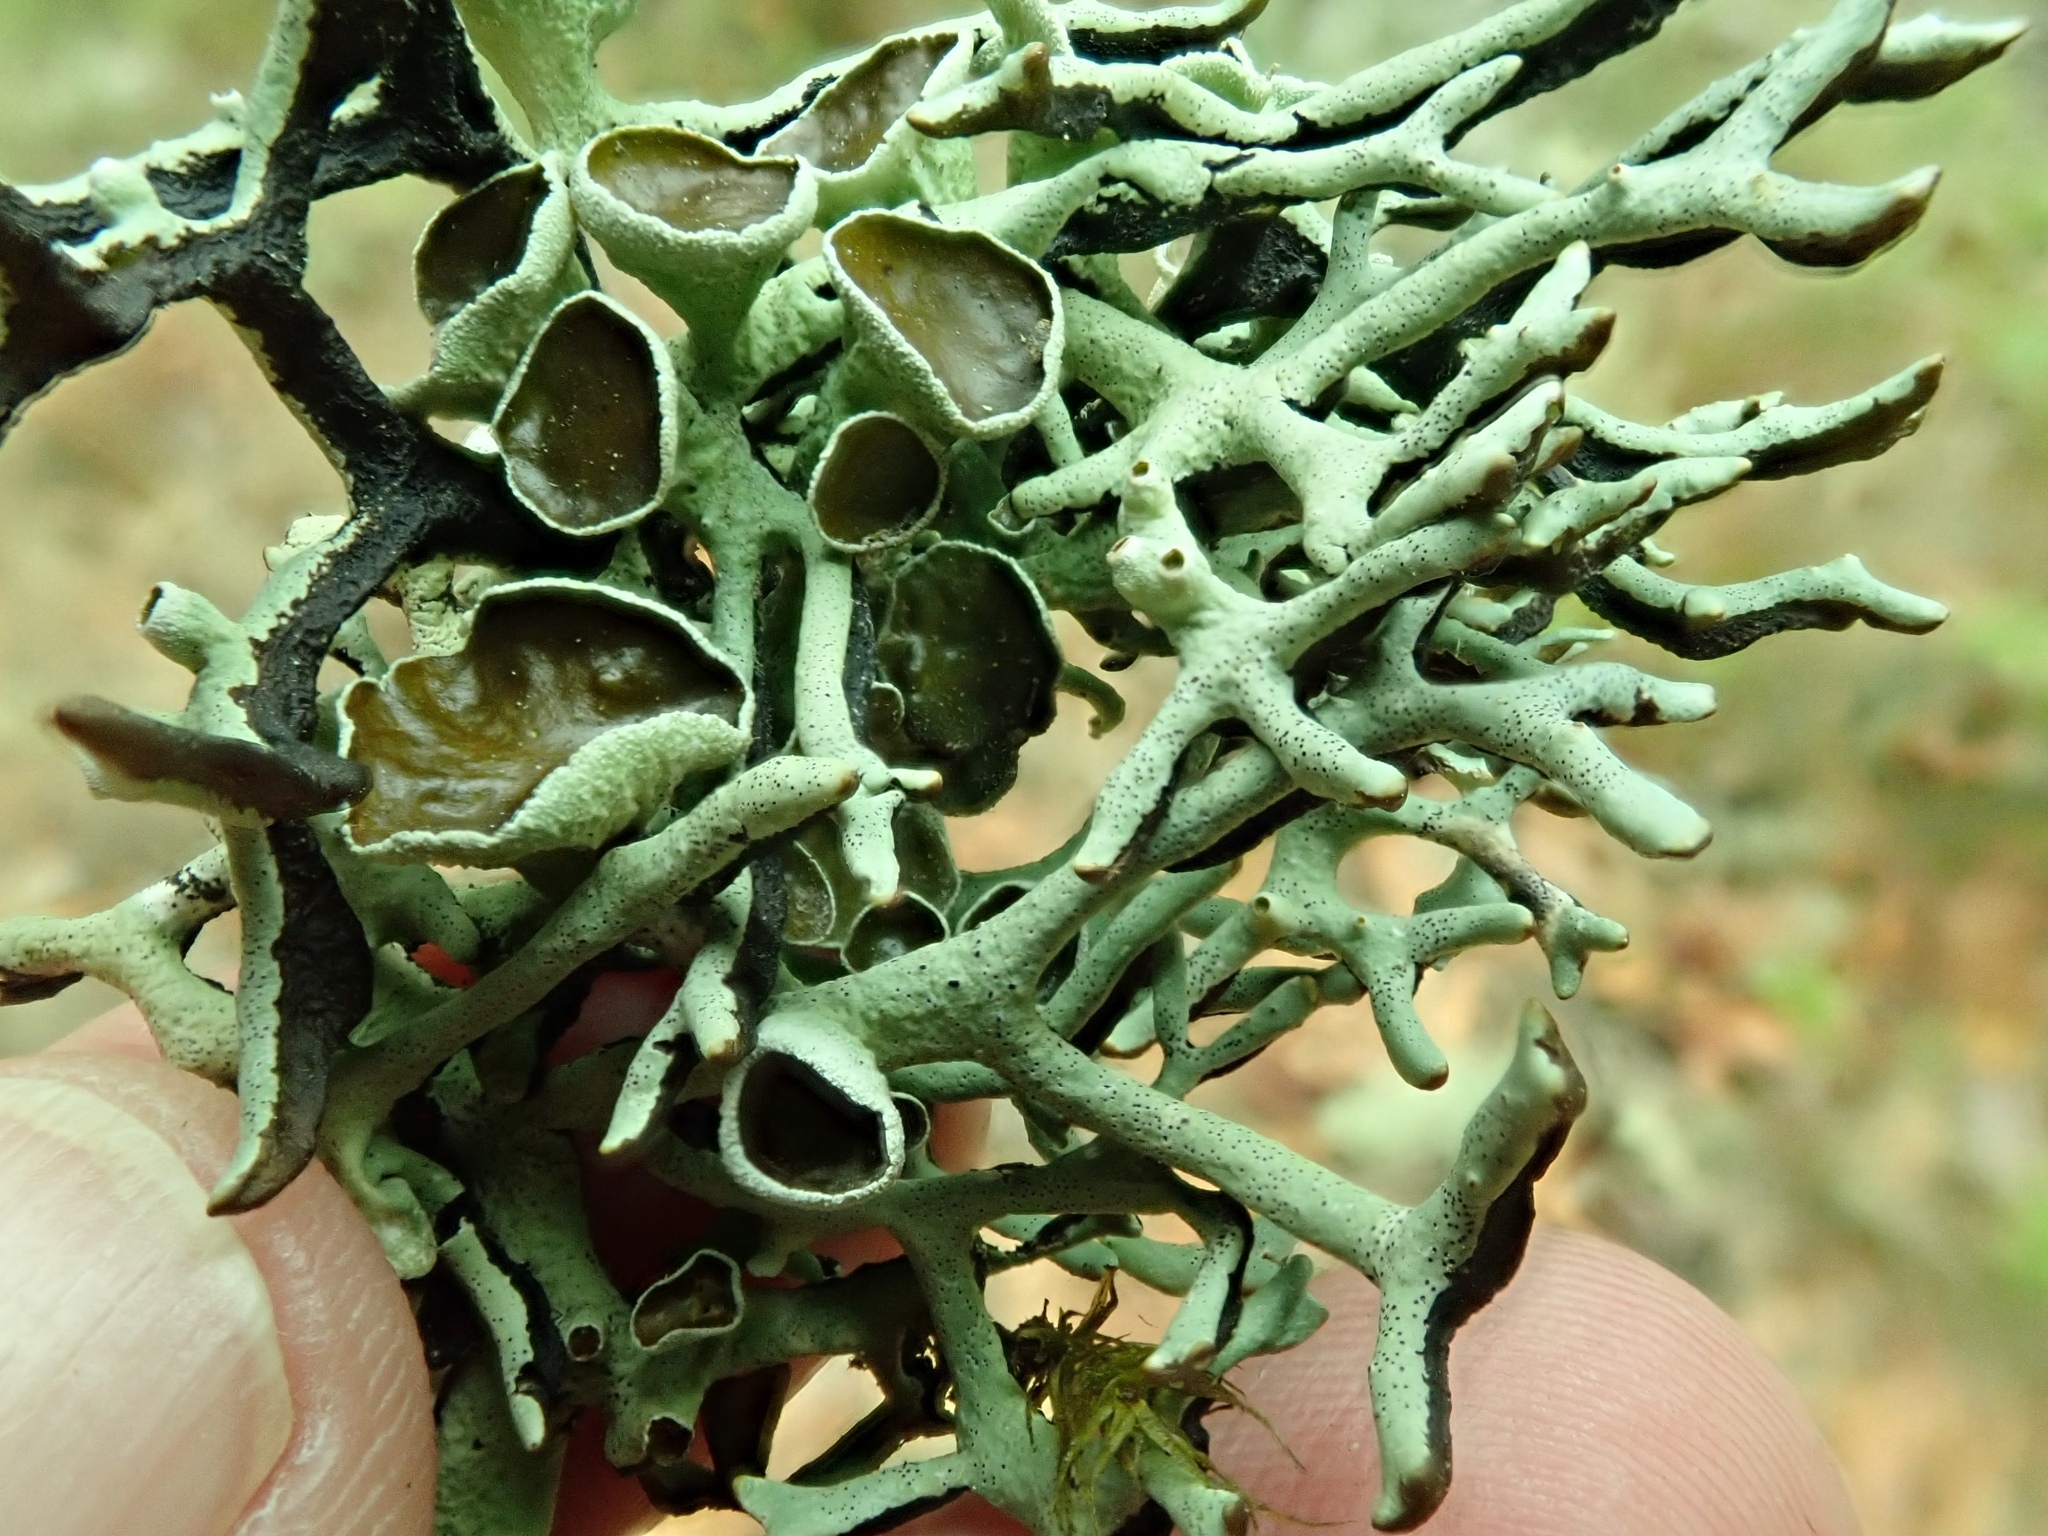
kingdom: Fungi
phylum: Ascomycota
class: Lecanoromycetes
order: Lecanorales
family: Parmeliaceae
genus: Hypogymnia
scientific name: Hypogymnia imshaugii
